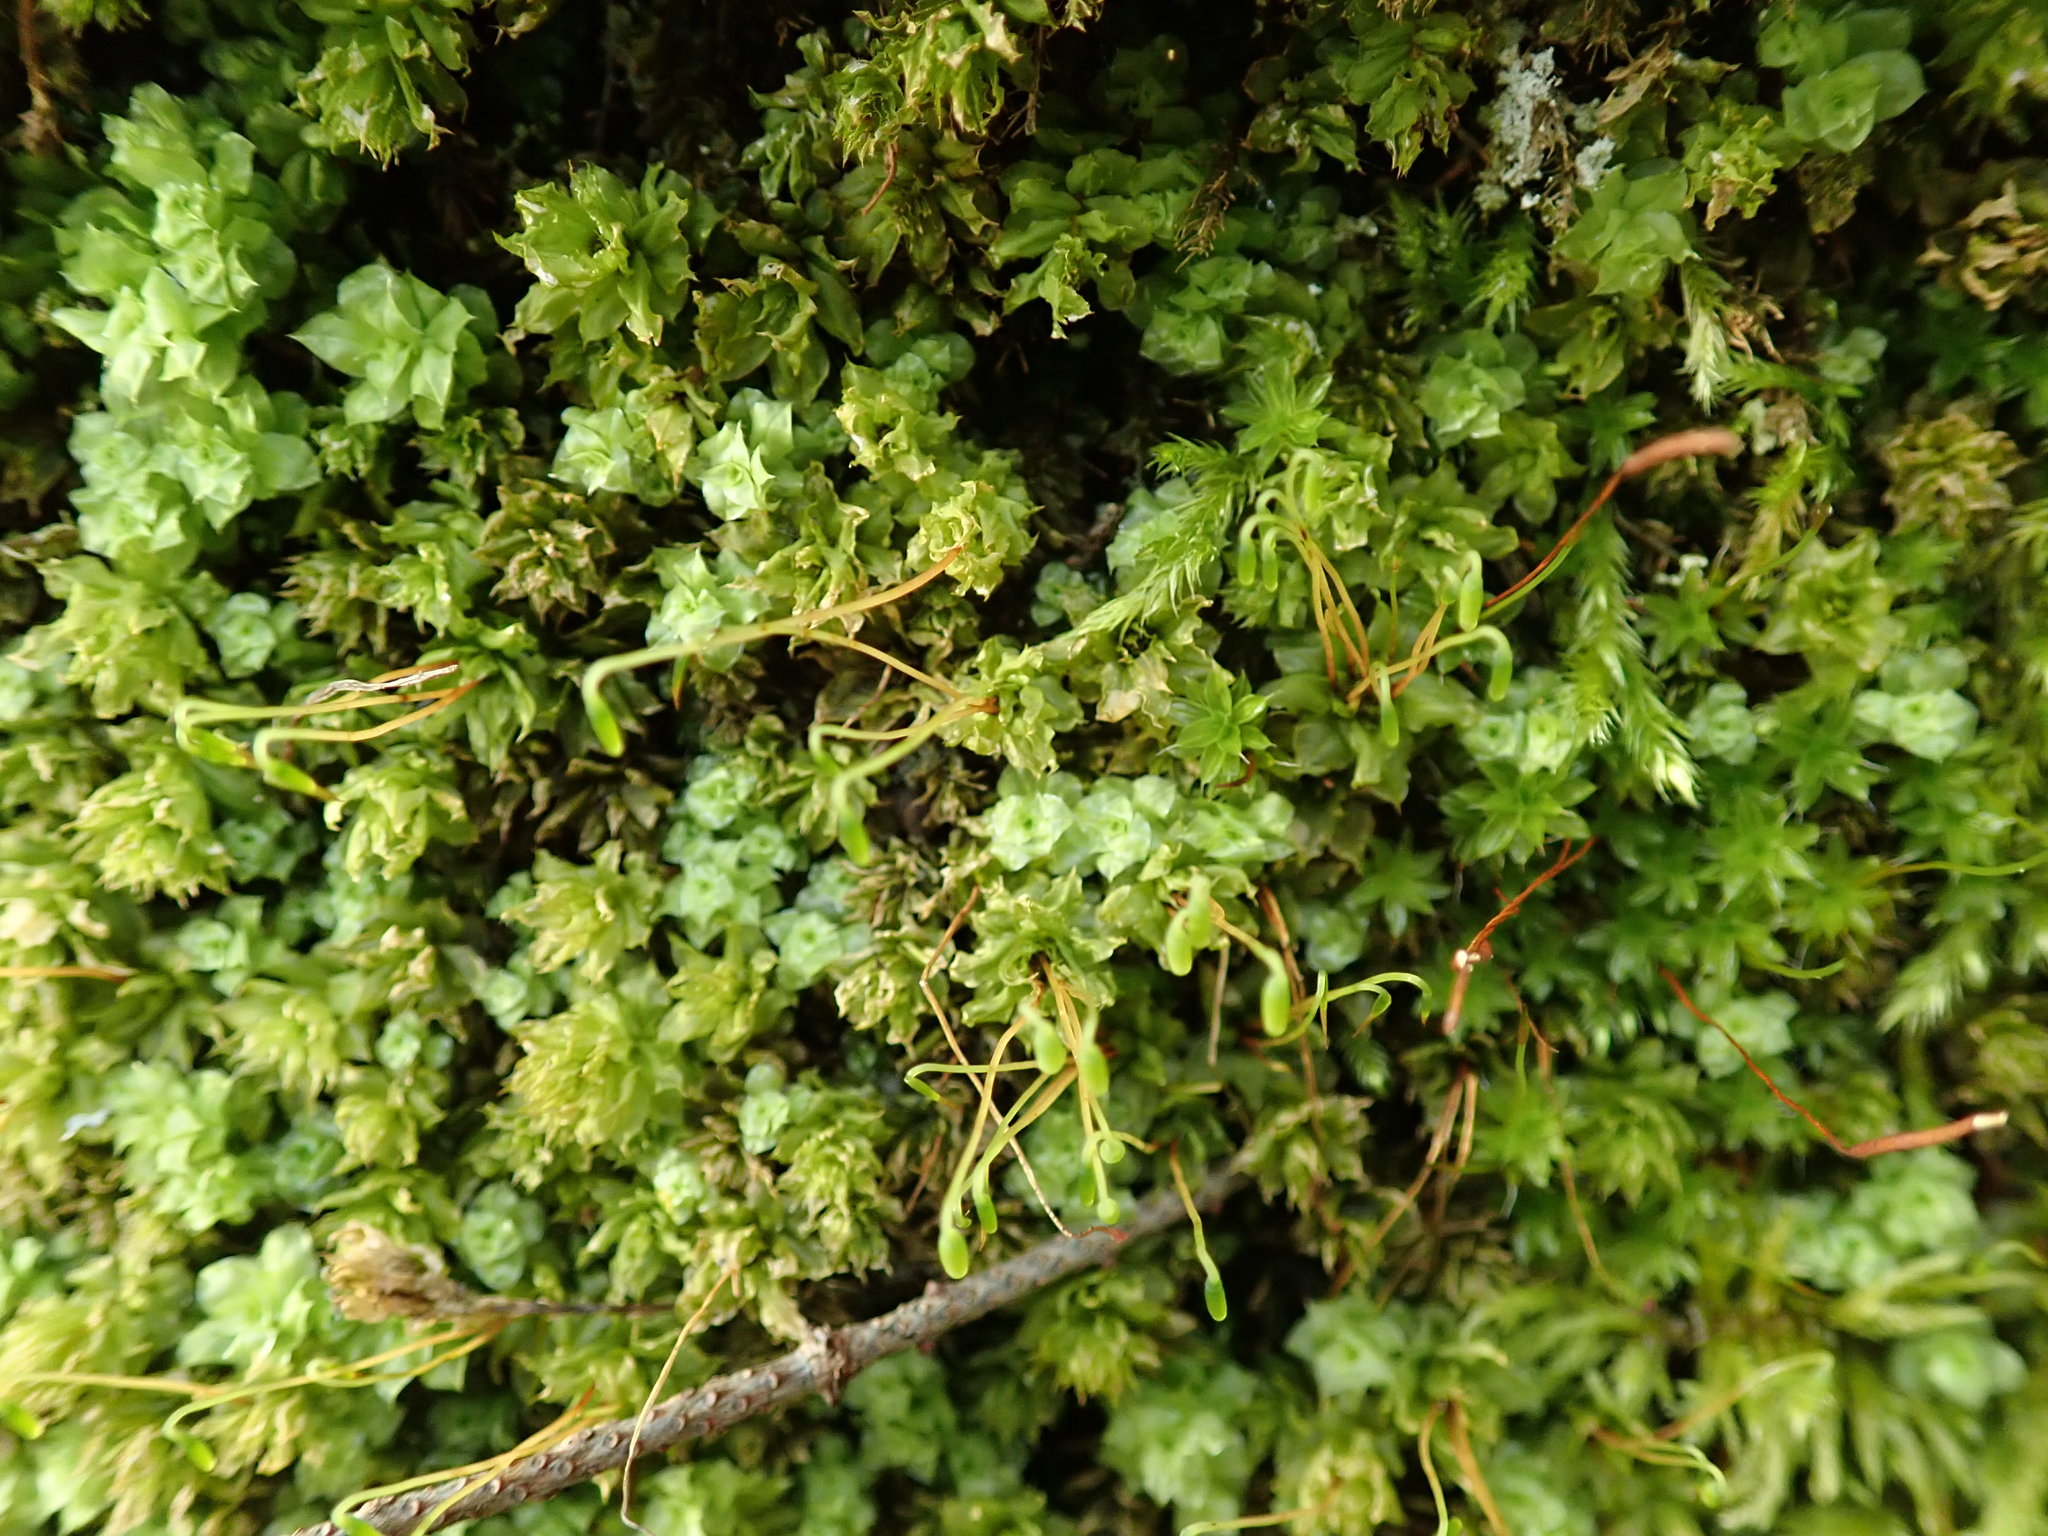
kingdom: Plantae
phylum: Bryophyta
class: Bryopsida
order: Bryales
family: Mniaceae
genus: Plagiomnium
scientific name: Plagiomnium venustum
